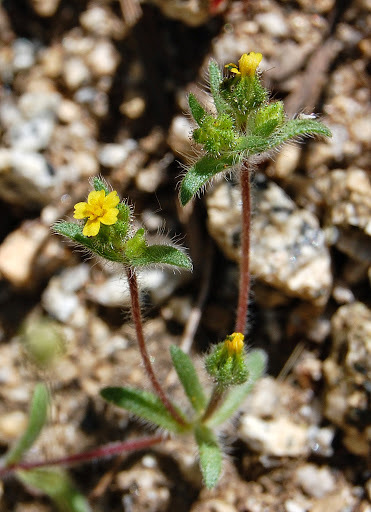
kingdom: Plantae
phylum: Tracheophyta
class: Magnoliopsida
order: Asterales
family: Asteraceae
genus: Hemizonella
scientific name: Hemizonella minima
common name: Opposite-leaved tarweed
